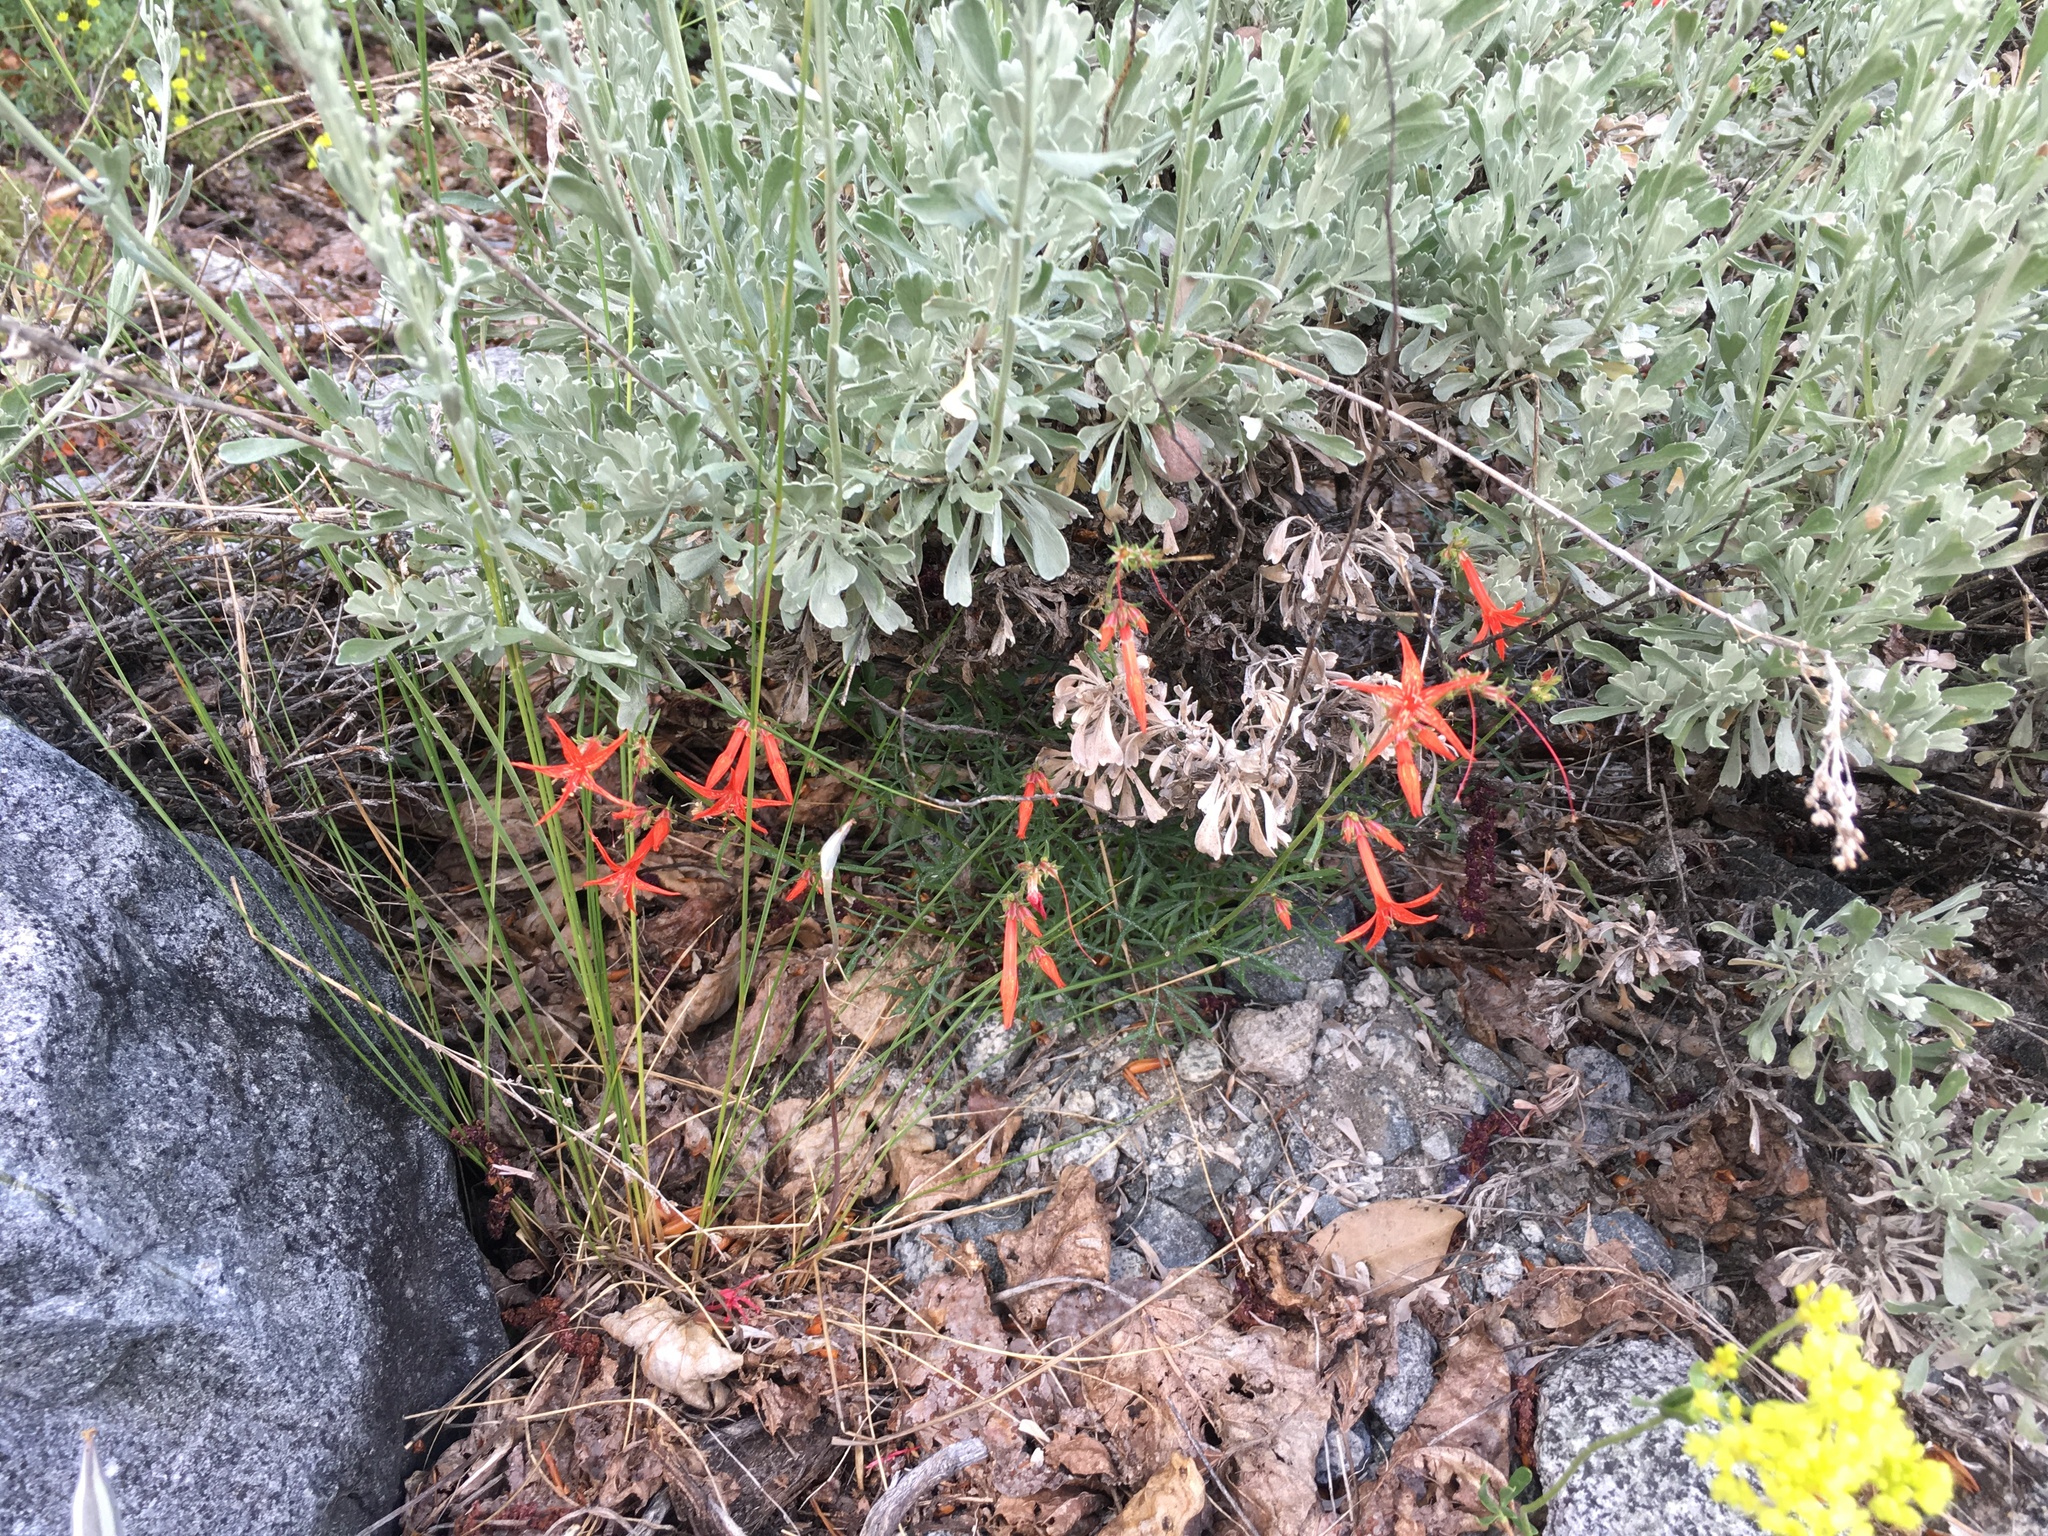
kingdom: Plantae
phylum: Tracheophyta
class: Magnoliopsida
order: Ericales
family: Polemoniaceae
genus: Ipomopsis
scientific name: Ipomopsis aggregata
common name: Scarlet gilia
